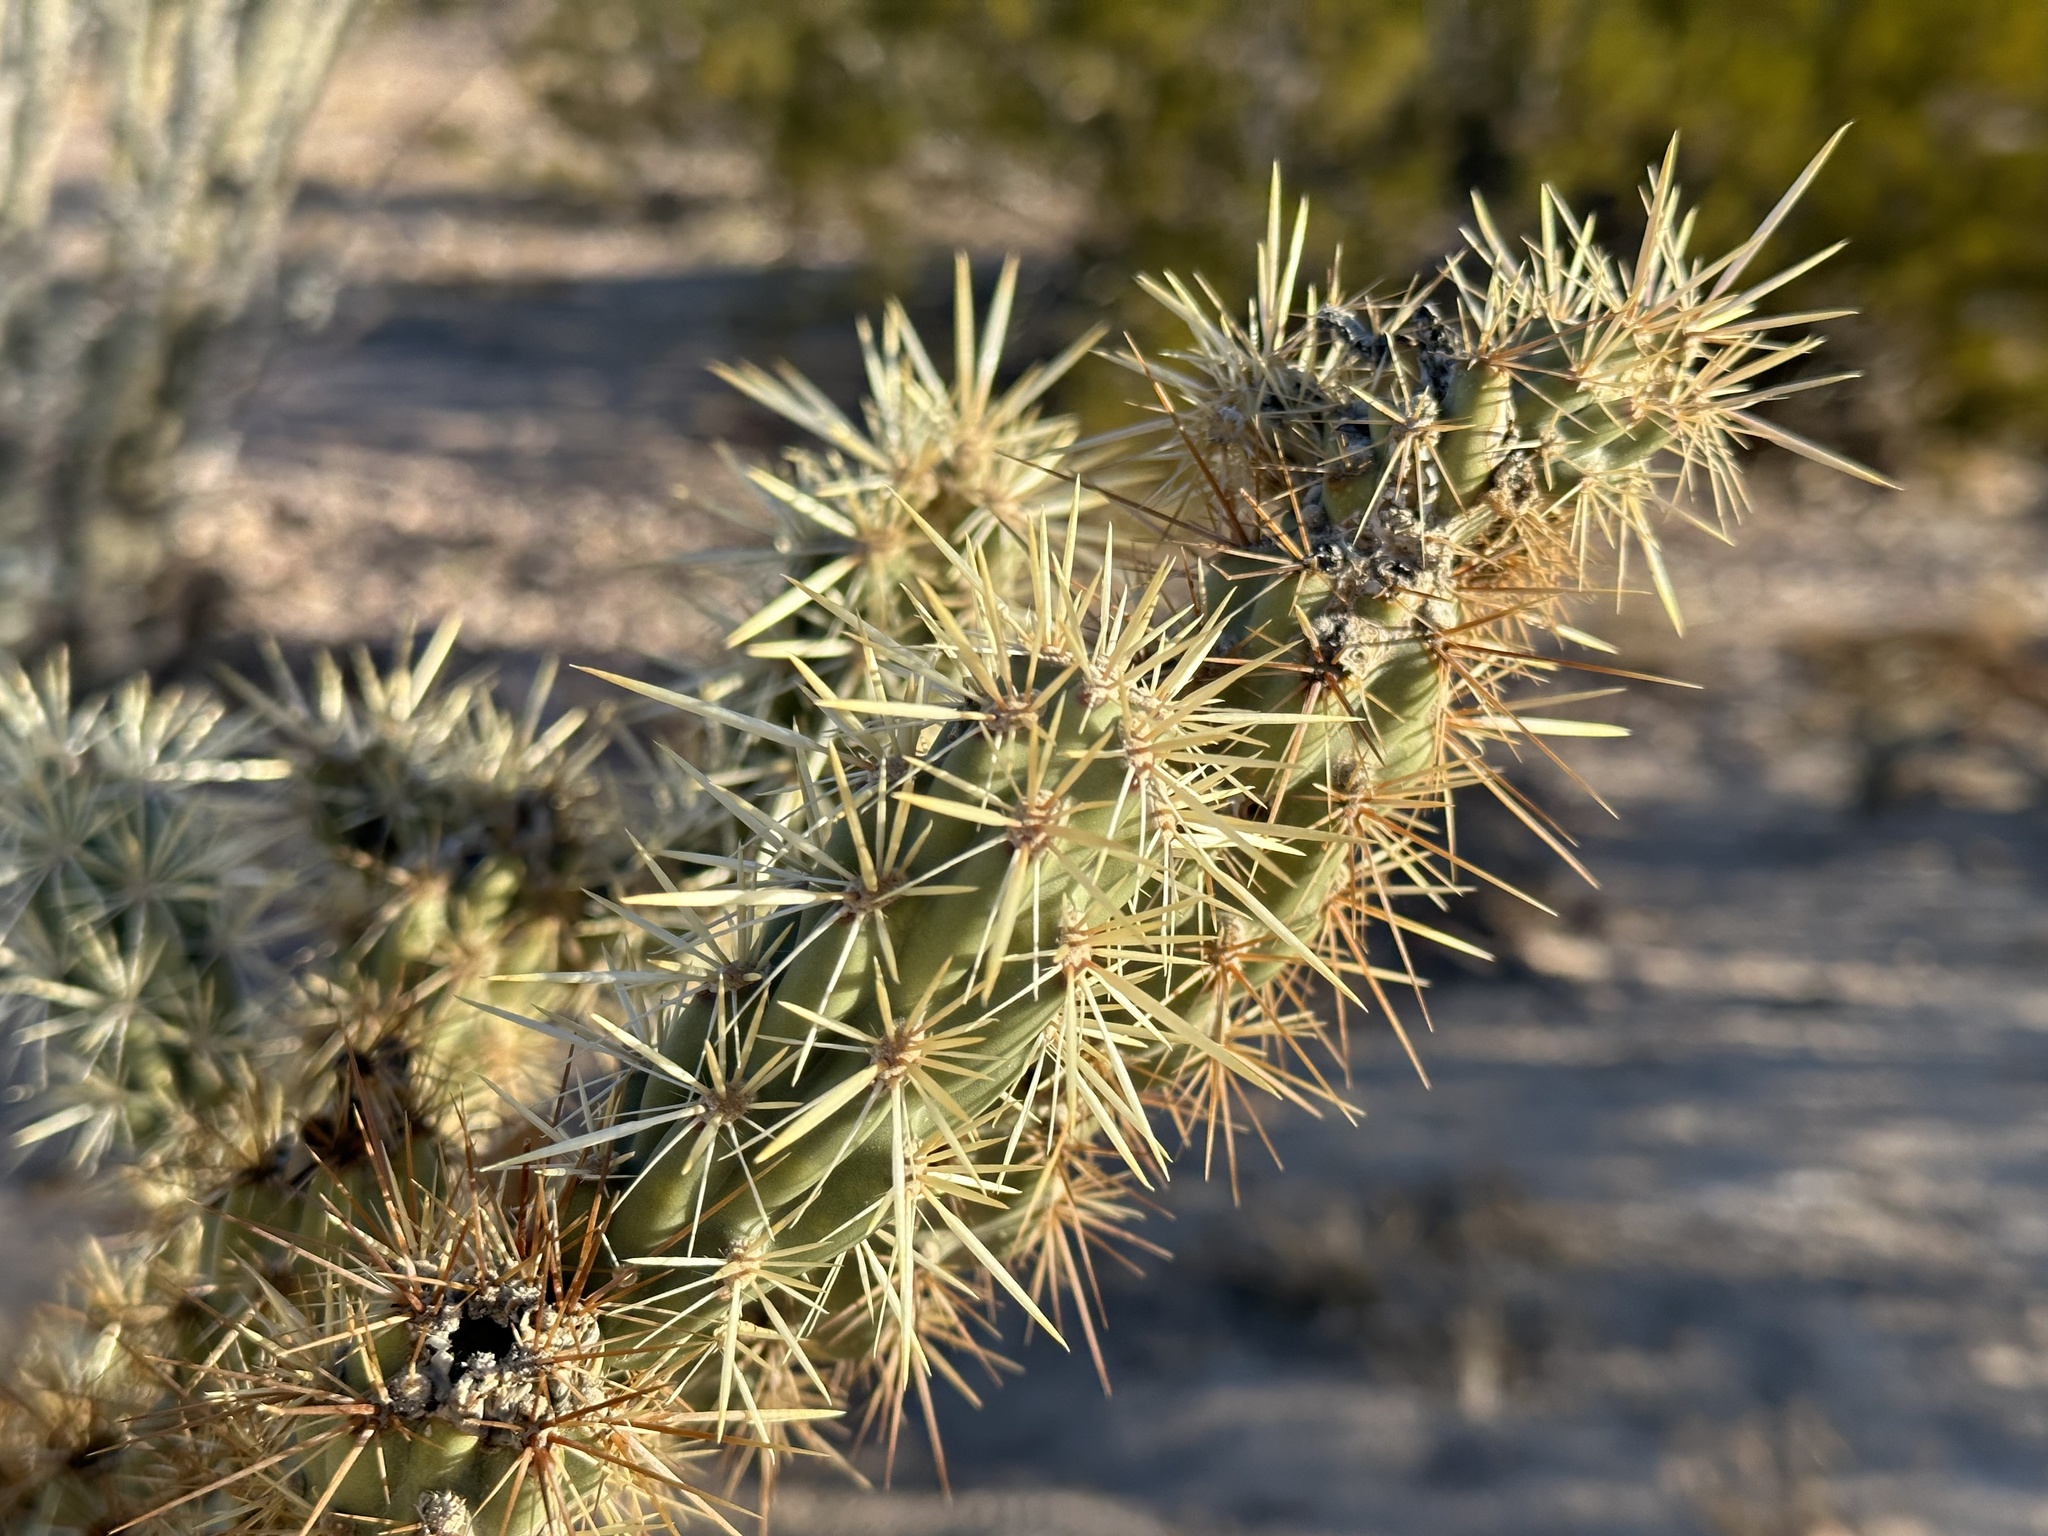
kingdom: Plantae
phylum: Tracheophyta
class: Magnoliopsida
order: Caryophyllales
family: Cactaceae
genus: Cylindropuntia
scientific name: Cylindropuntia acanthocarpa
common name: Buckhorn cholla
